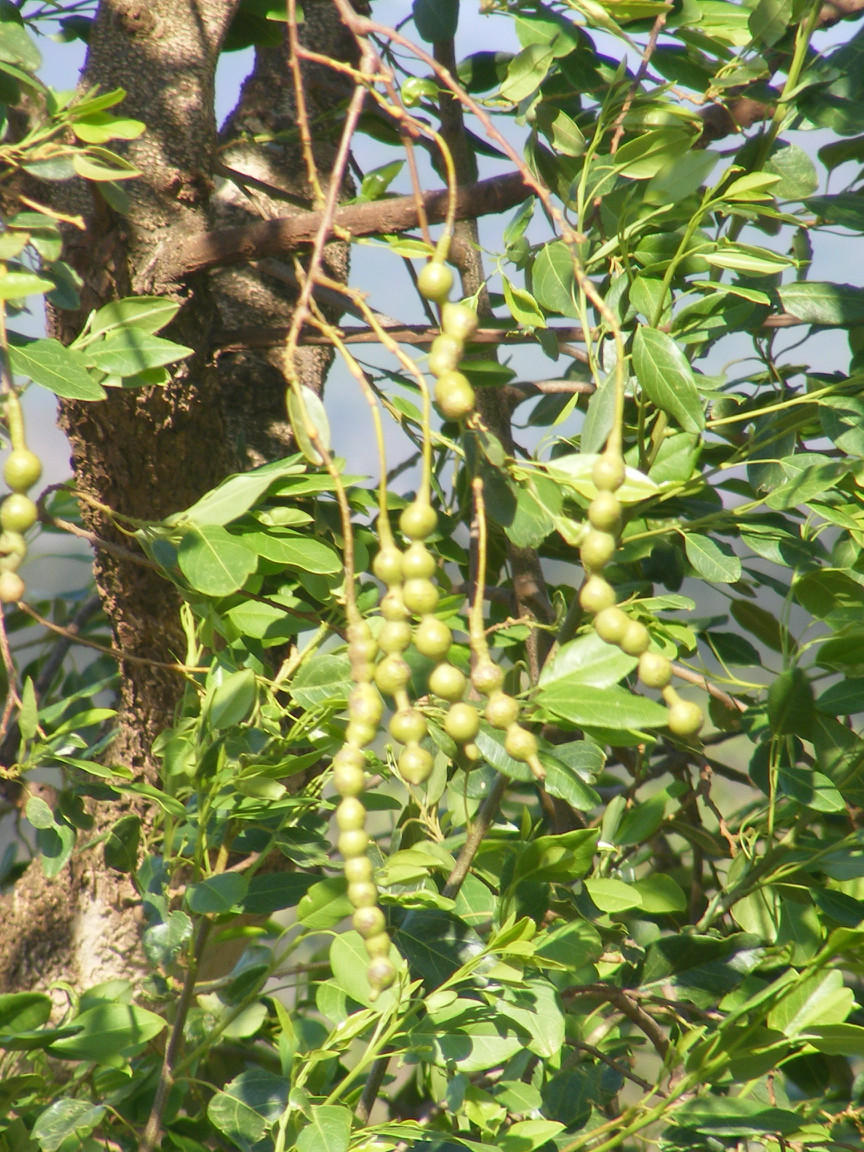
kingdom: Plantae
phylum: Tracheophyta
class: Magnoliopsida
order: Brassicales
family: Capparaceae
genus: Maerua
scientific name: Maerua angolensis
